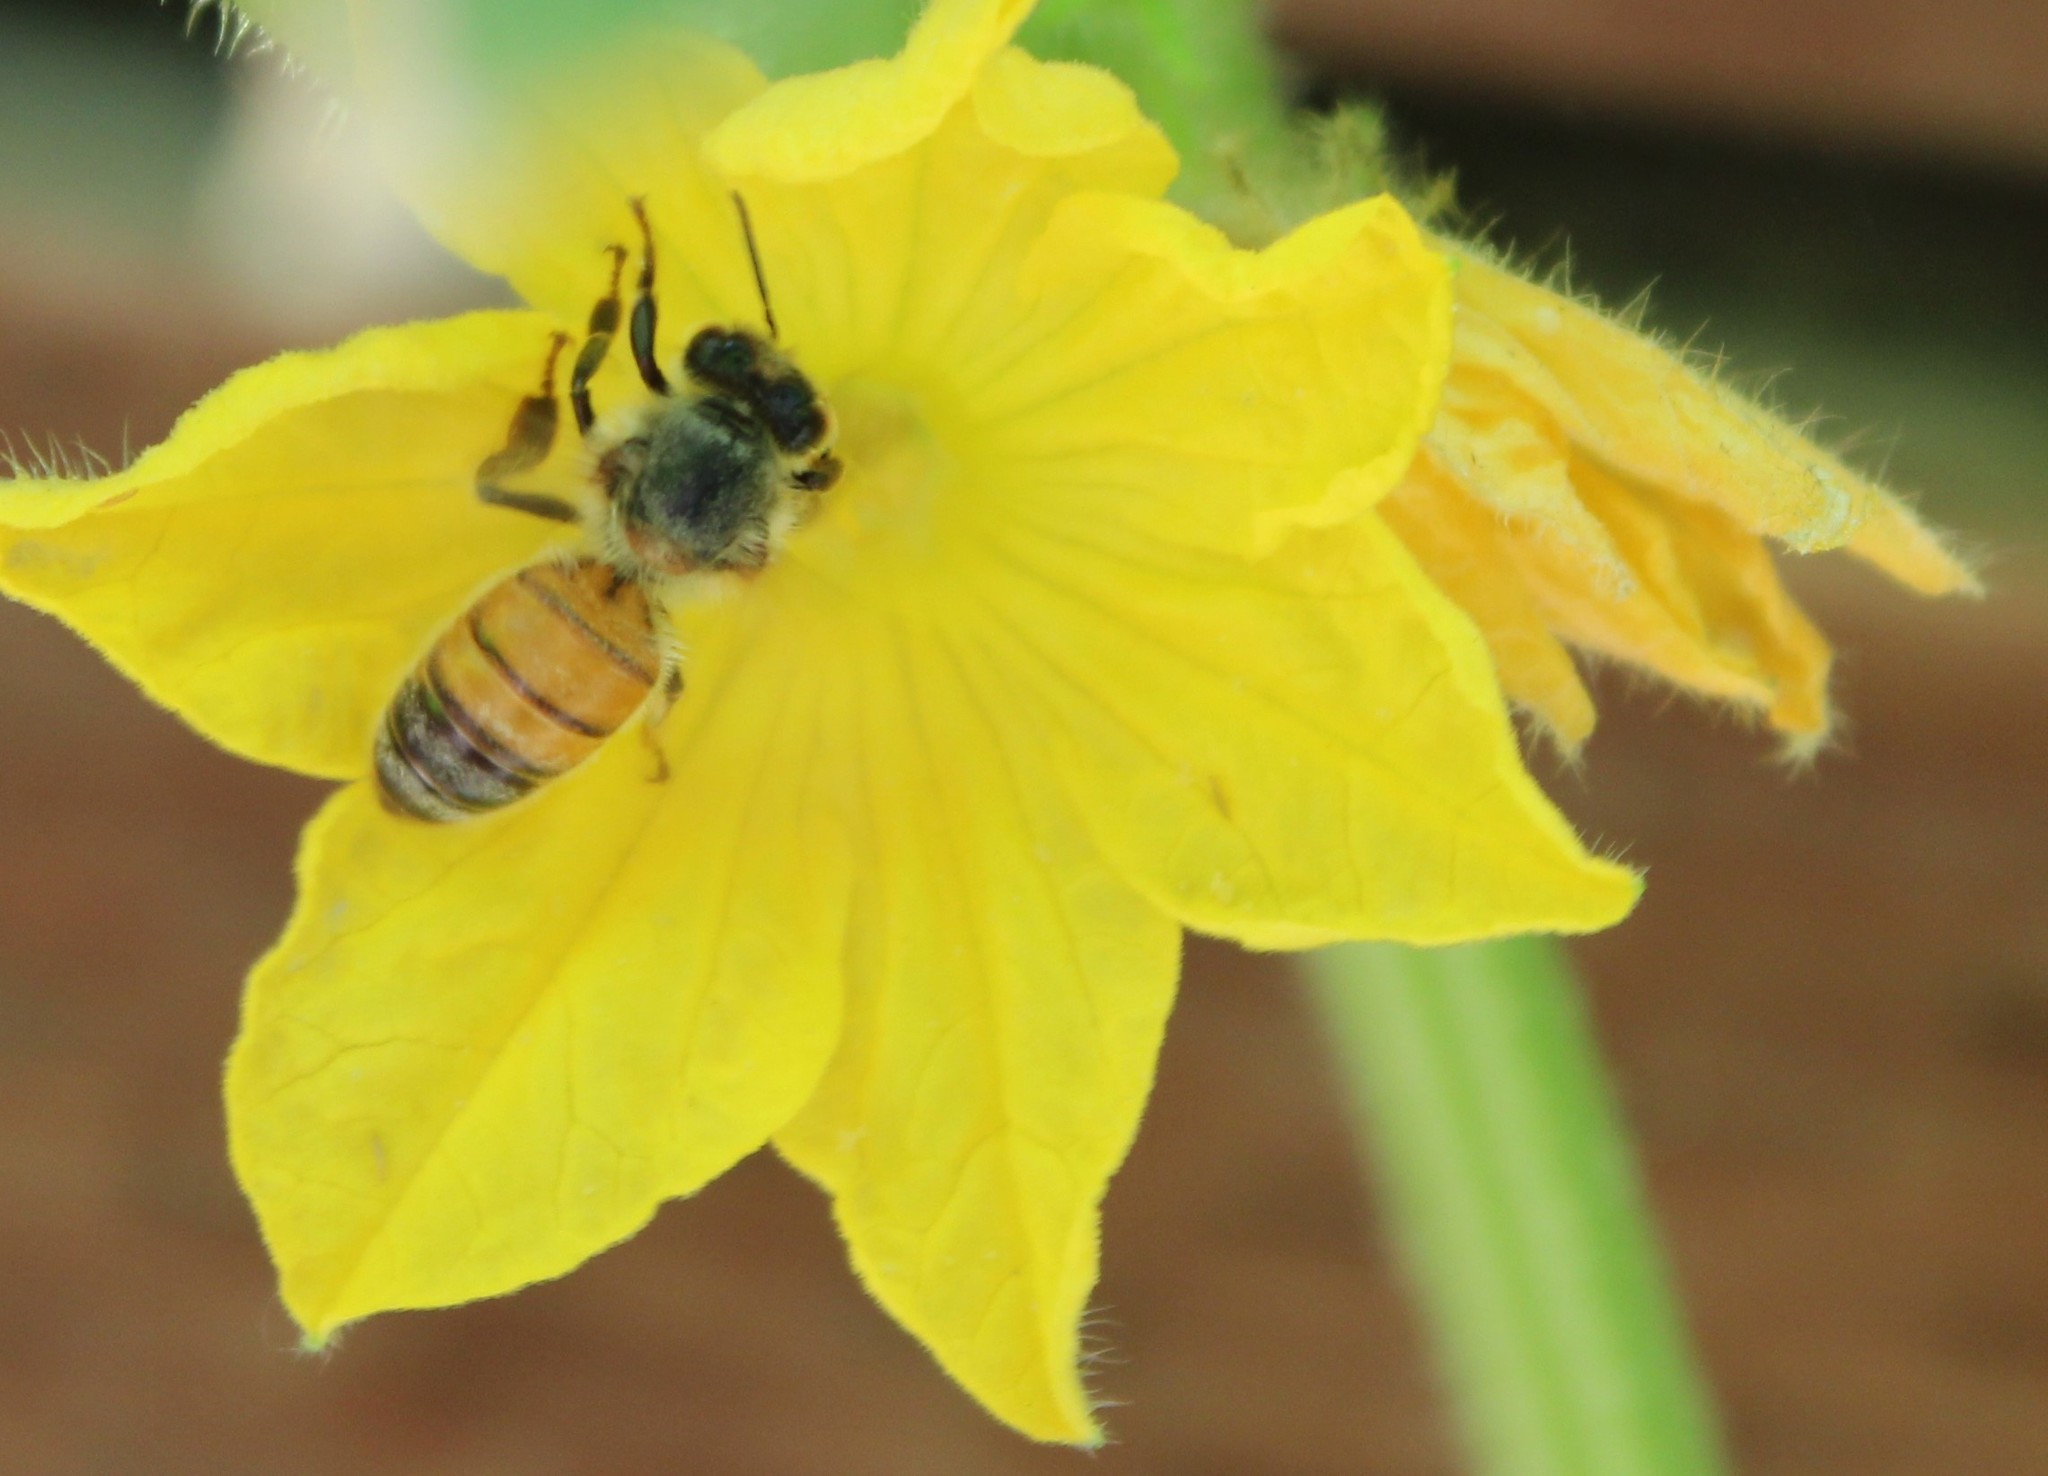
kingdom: Animalia
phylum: Arthropoda
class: Insecta
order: Hymenoptera
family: Apidae
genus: Apis
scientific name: Apis mellifera
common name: Honey bee
